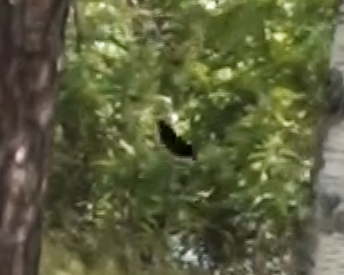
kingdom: Animalia
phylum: Arthropoda
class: Insecta
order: Lepidoptera
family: Nymphalidae
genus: Nymphalis
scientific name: Nymphalis antiopa
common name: Camberwell beauty
